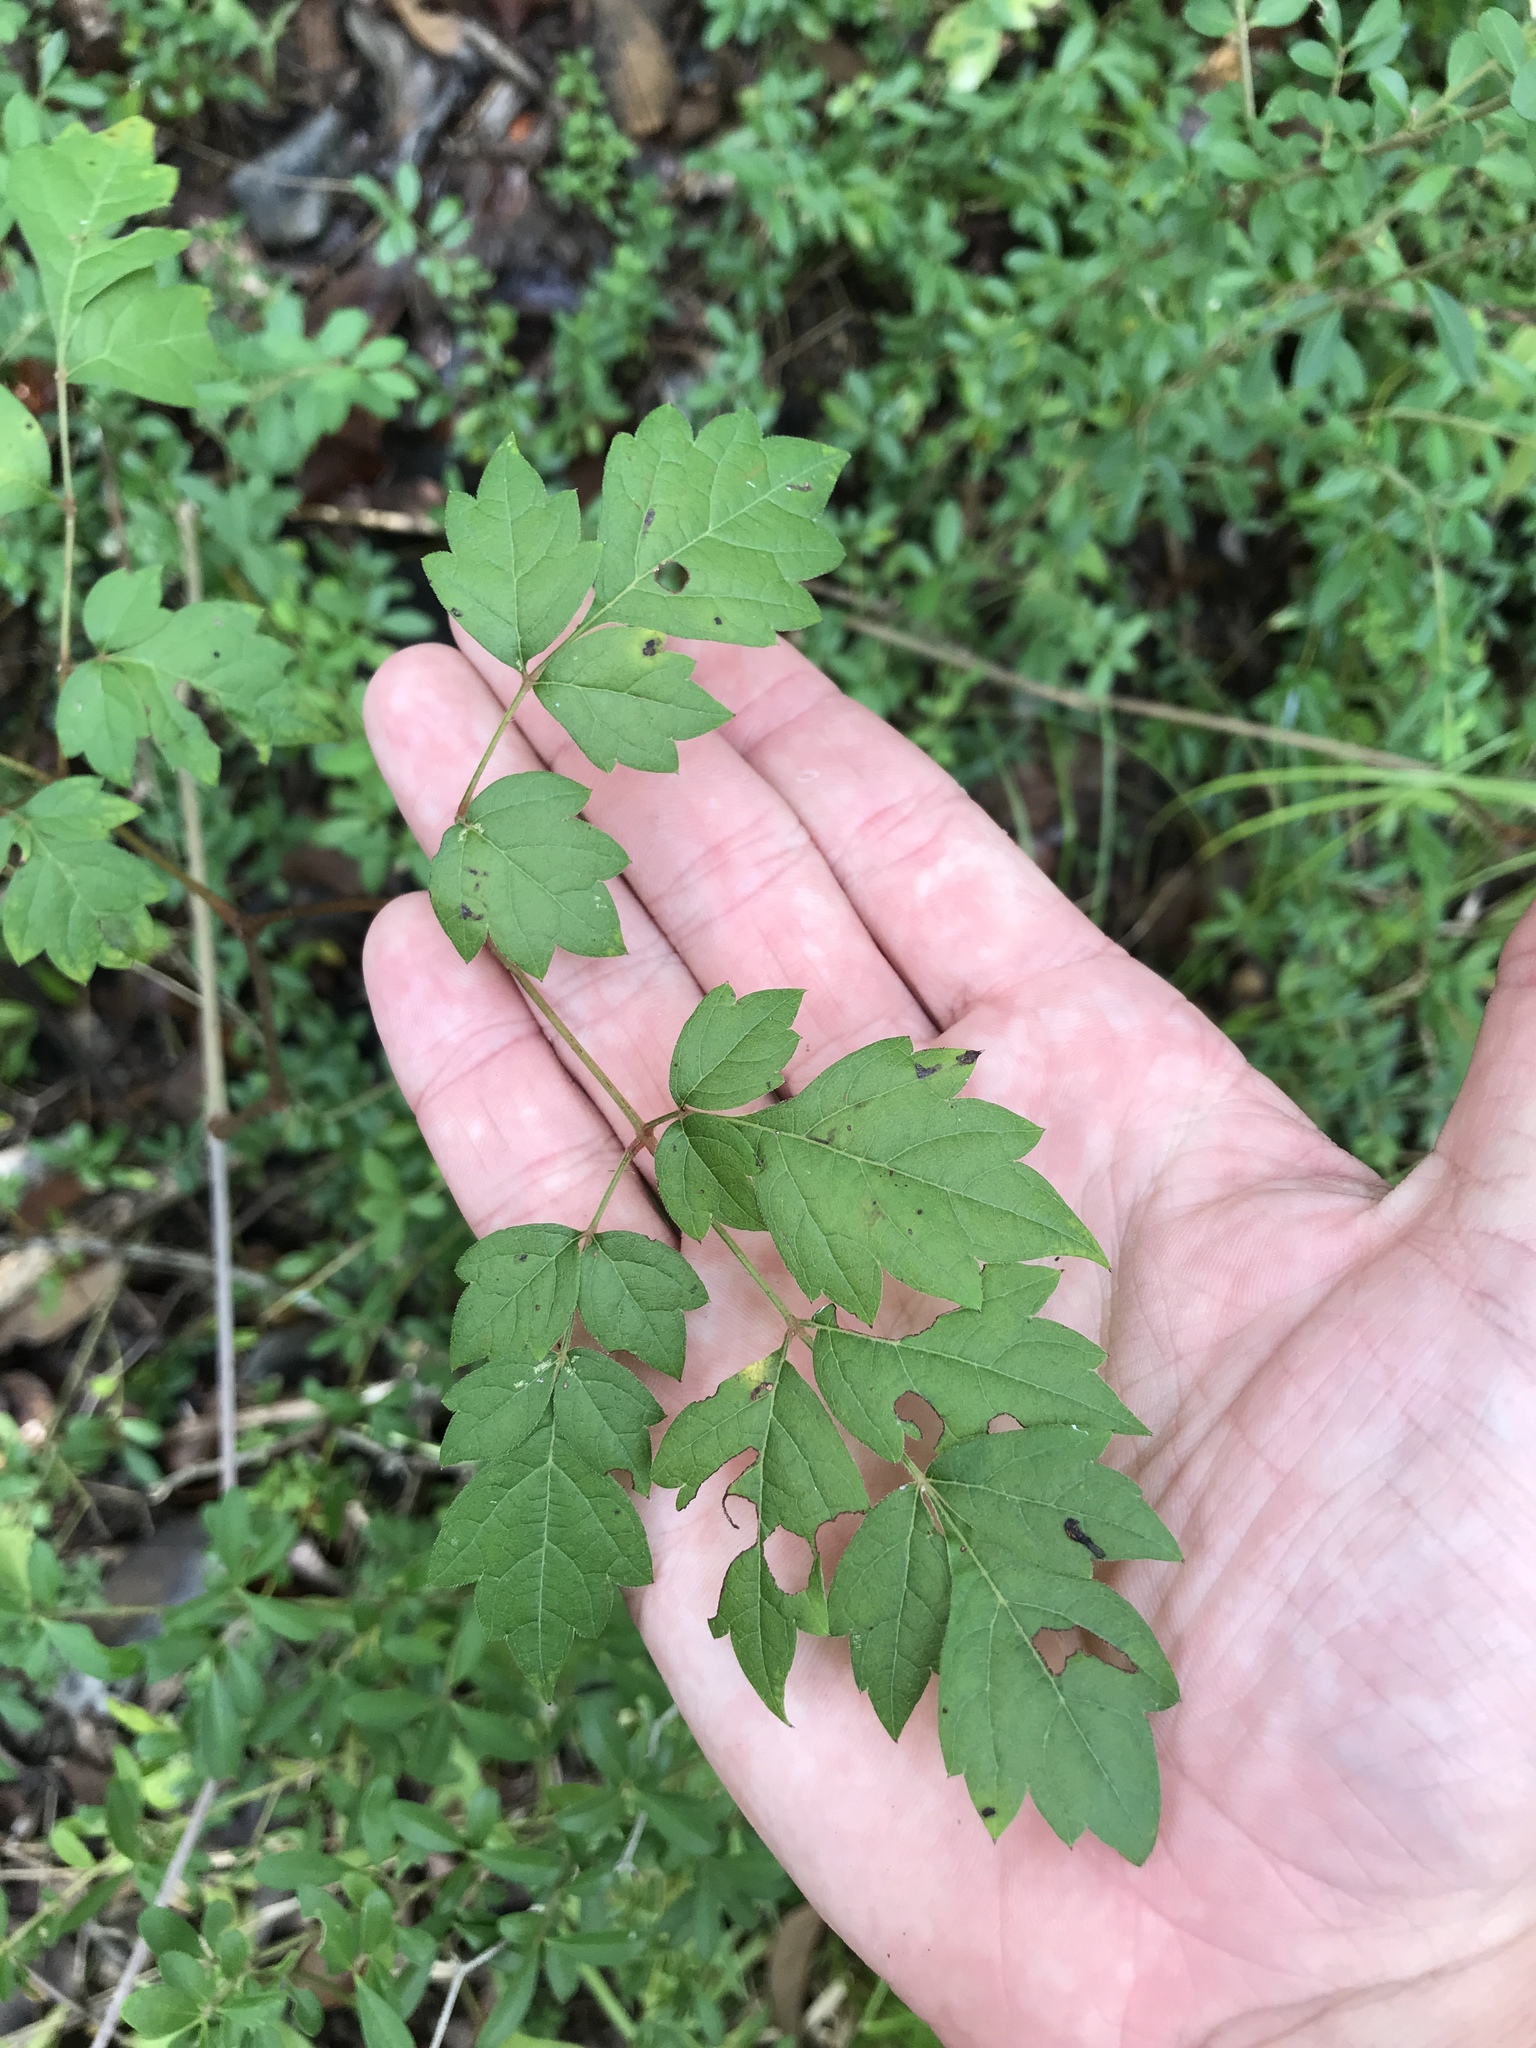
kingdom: Plantae
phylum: Tracheophyta
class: Magnoliopsida
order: Vitales
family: Vitaceae
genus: Nekemias
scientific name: Nekemias arborea
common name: Peppervine
